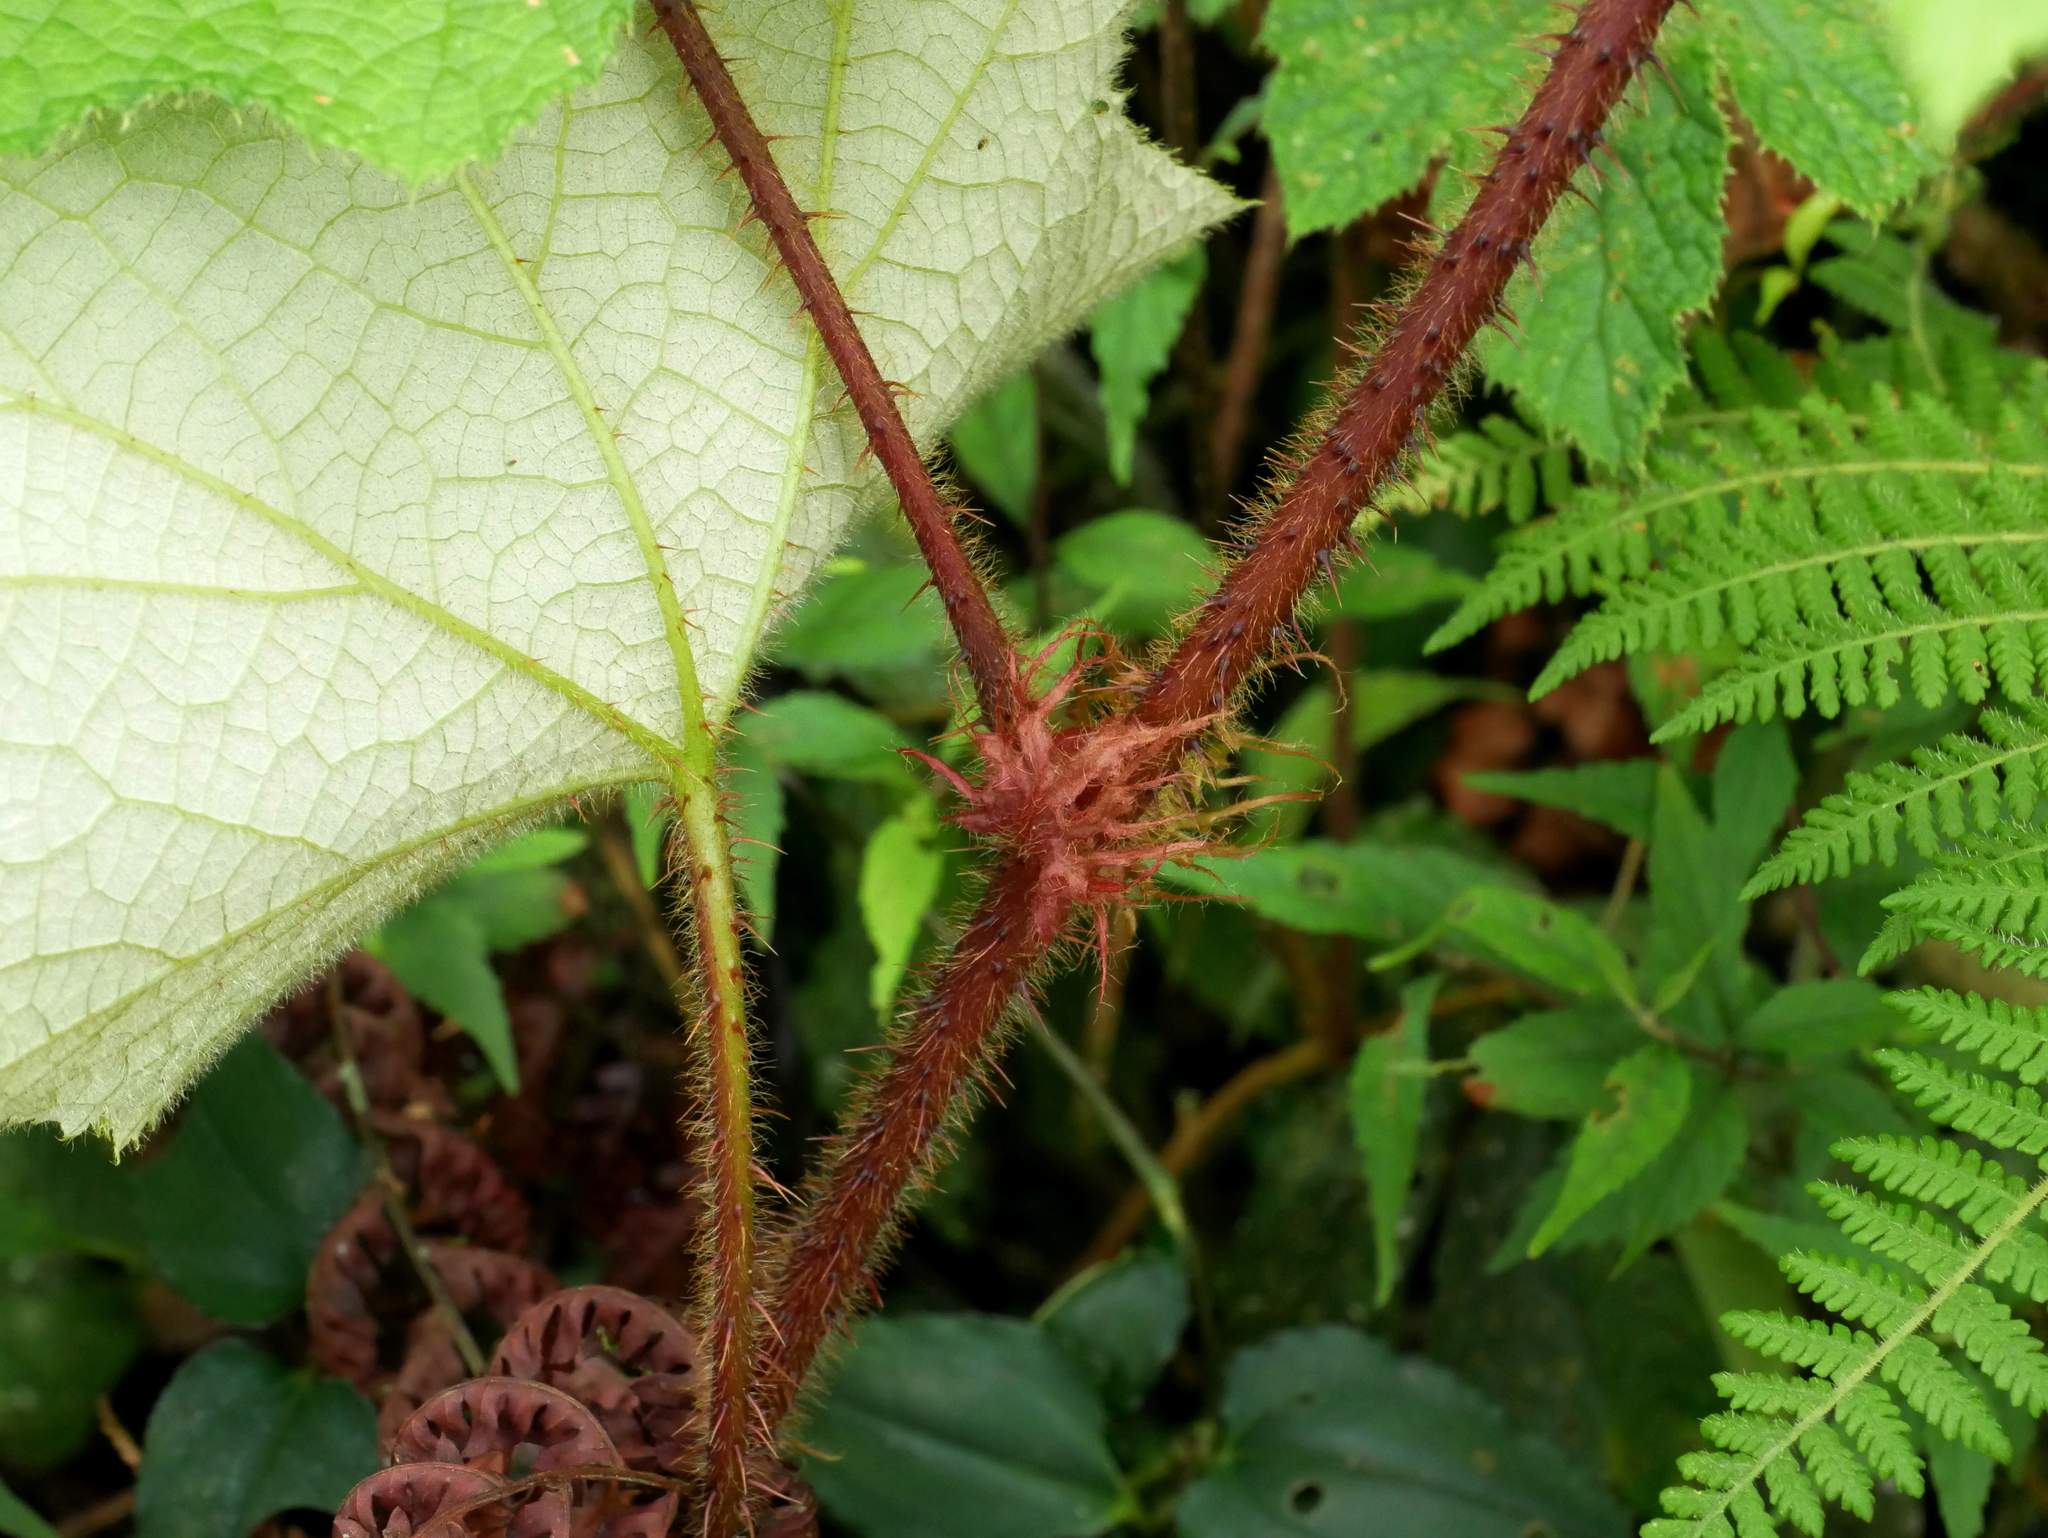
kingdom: Plantae
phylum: Tracheophyta
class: Magnoliopsida
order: Rosales
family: Rosaceae
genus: Rubus
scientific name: Rubus rufus
